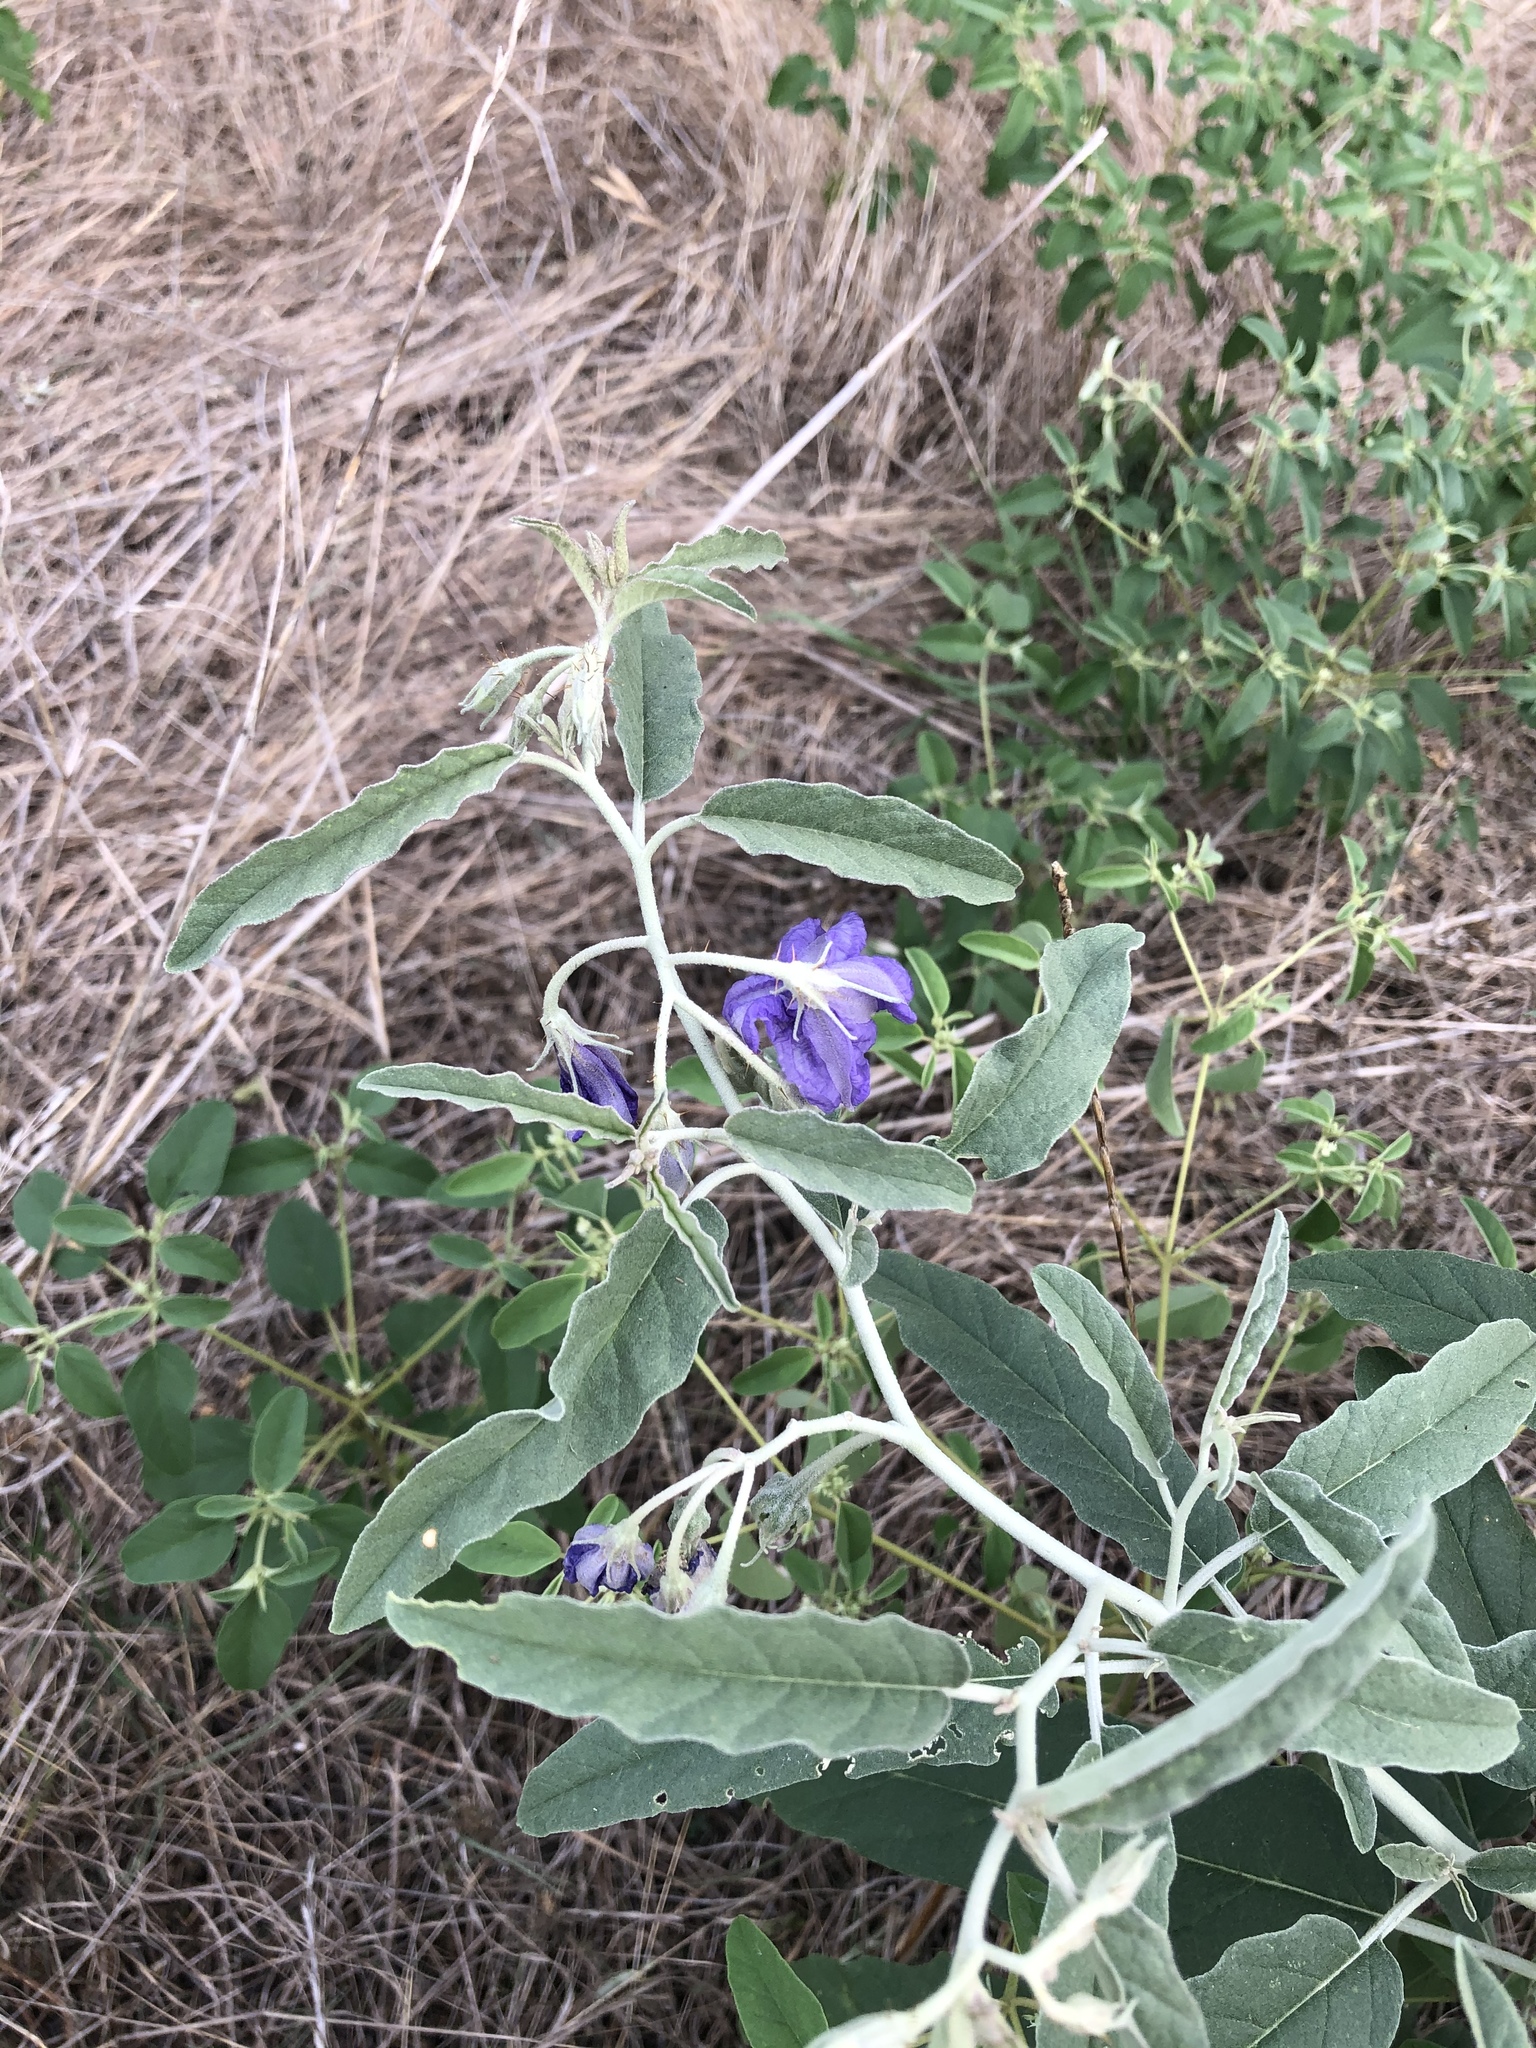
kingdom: Plantae
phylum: Tracheophyta
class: Magnoliopsida
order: Solanales
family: Solanaceae
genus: Solanum
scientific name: Solanum elaeagnifolium
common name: Silverleaf nightshade
